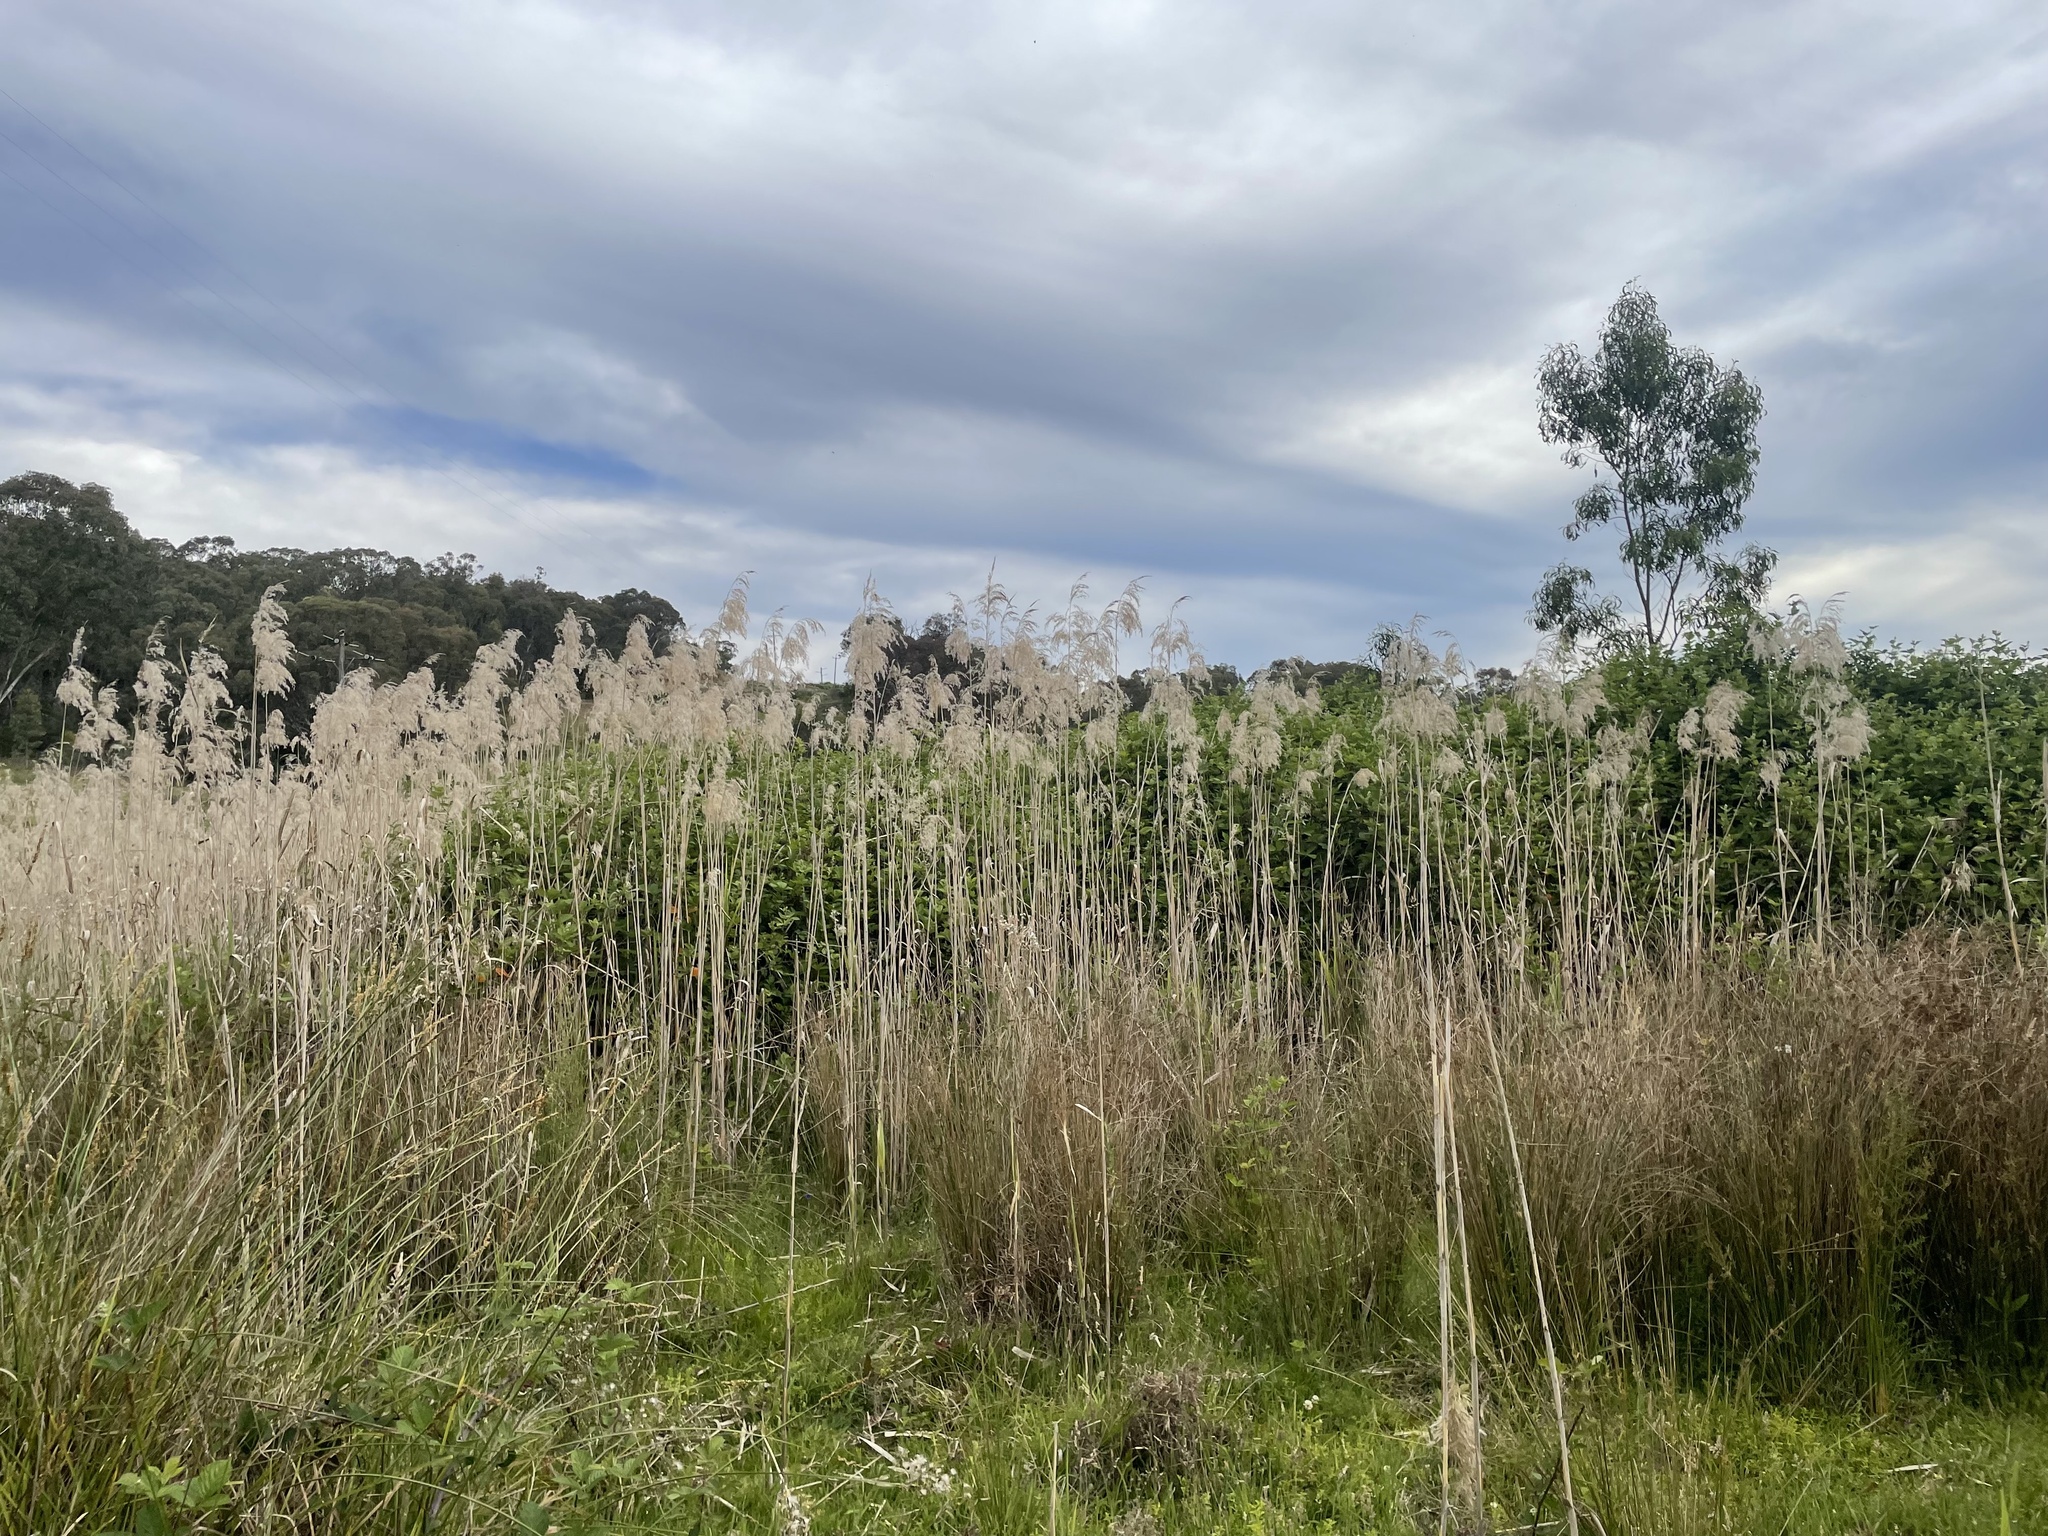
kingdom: Plantae
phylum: Tracheophyta
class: Liliopsida
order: Poales
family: Poaceae
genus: Phragmites
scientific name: Phragmites australis
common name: Common reed
